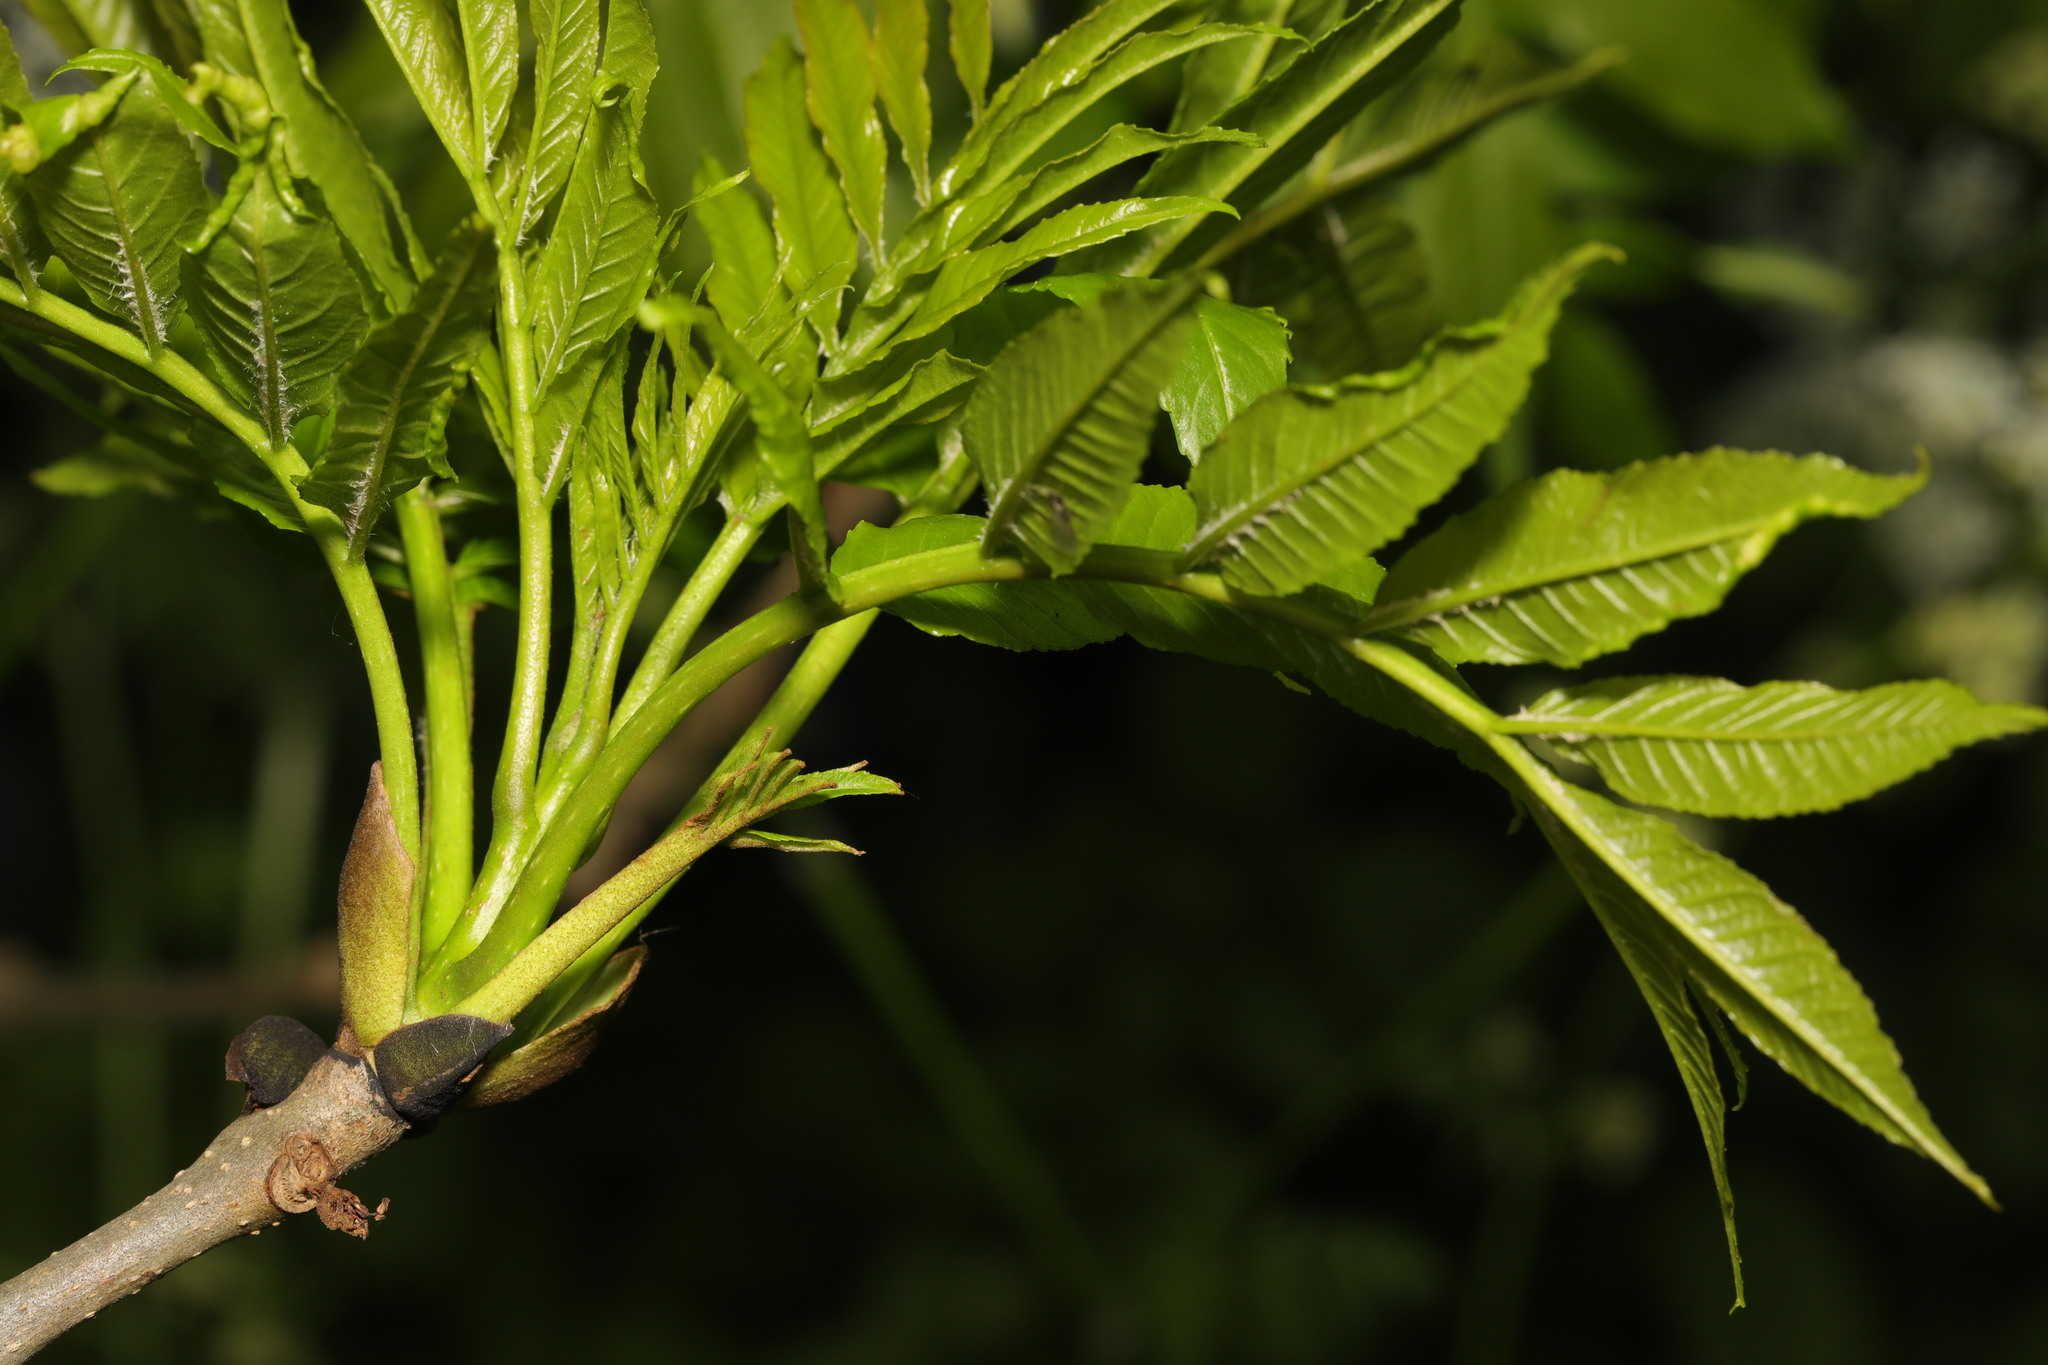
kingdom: Plantae
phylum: Tracheophyta
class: Magnoliopsida
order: Lamiales
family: Oleaceae
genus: Fraxinus
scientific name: Fraxinus excelsior
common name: European ash
